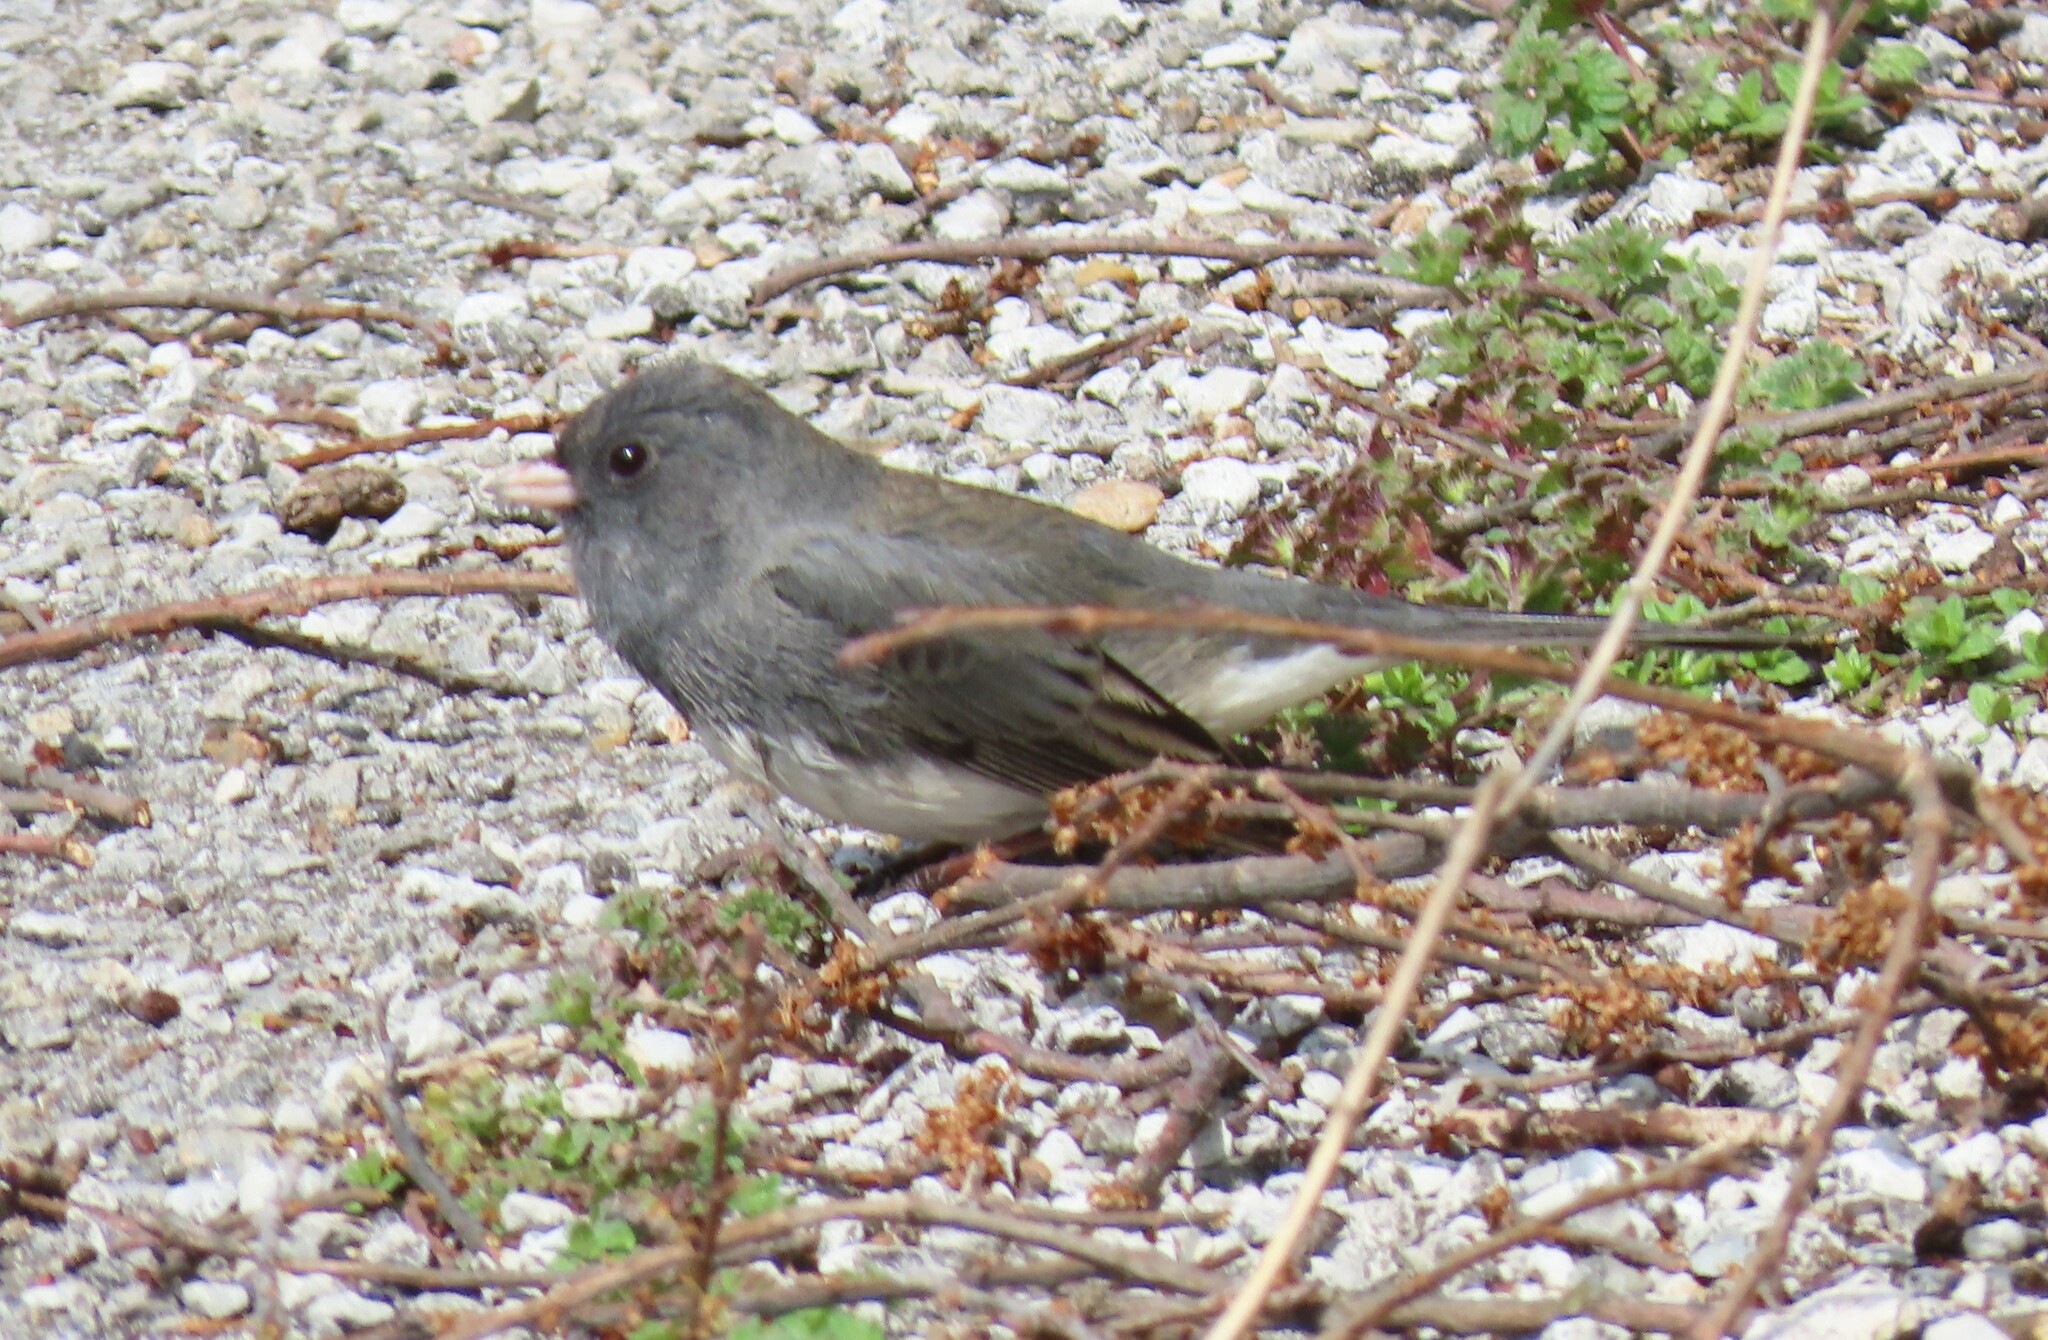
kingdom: Animalia
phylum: Chordata
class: Aves
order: Passeriformes
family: Passerellidae
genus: Junco
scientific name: Junco hyemalis
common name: Dark-eyed junco
